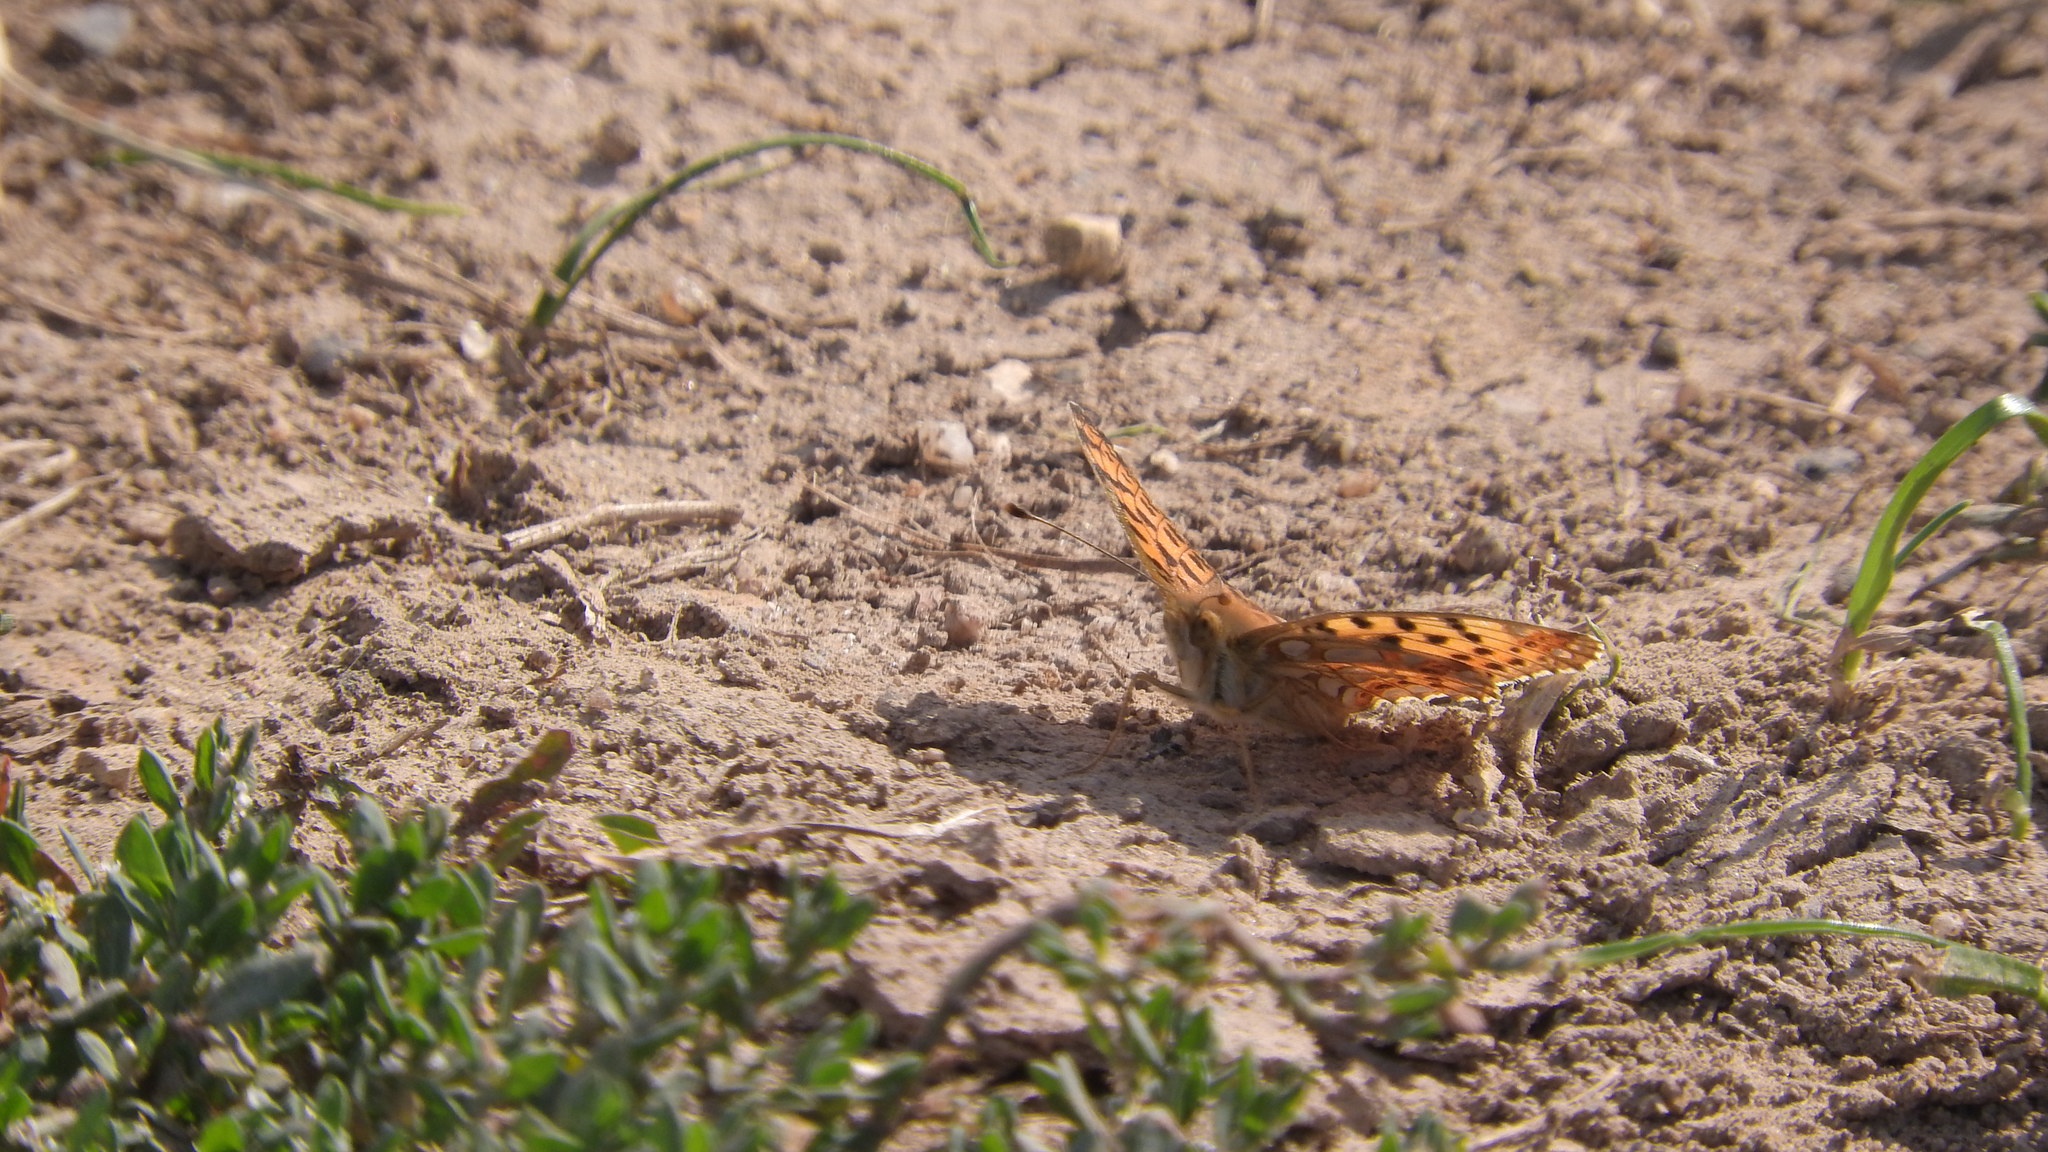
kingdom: Animalia
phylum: Arthropoda
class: Insecta
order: Lepidoptera
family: Nymphalidae
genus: Issoria
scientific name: Issoria lathonia
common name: Queen of spain fritillary
